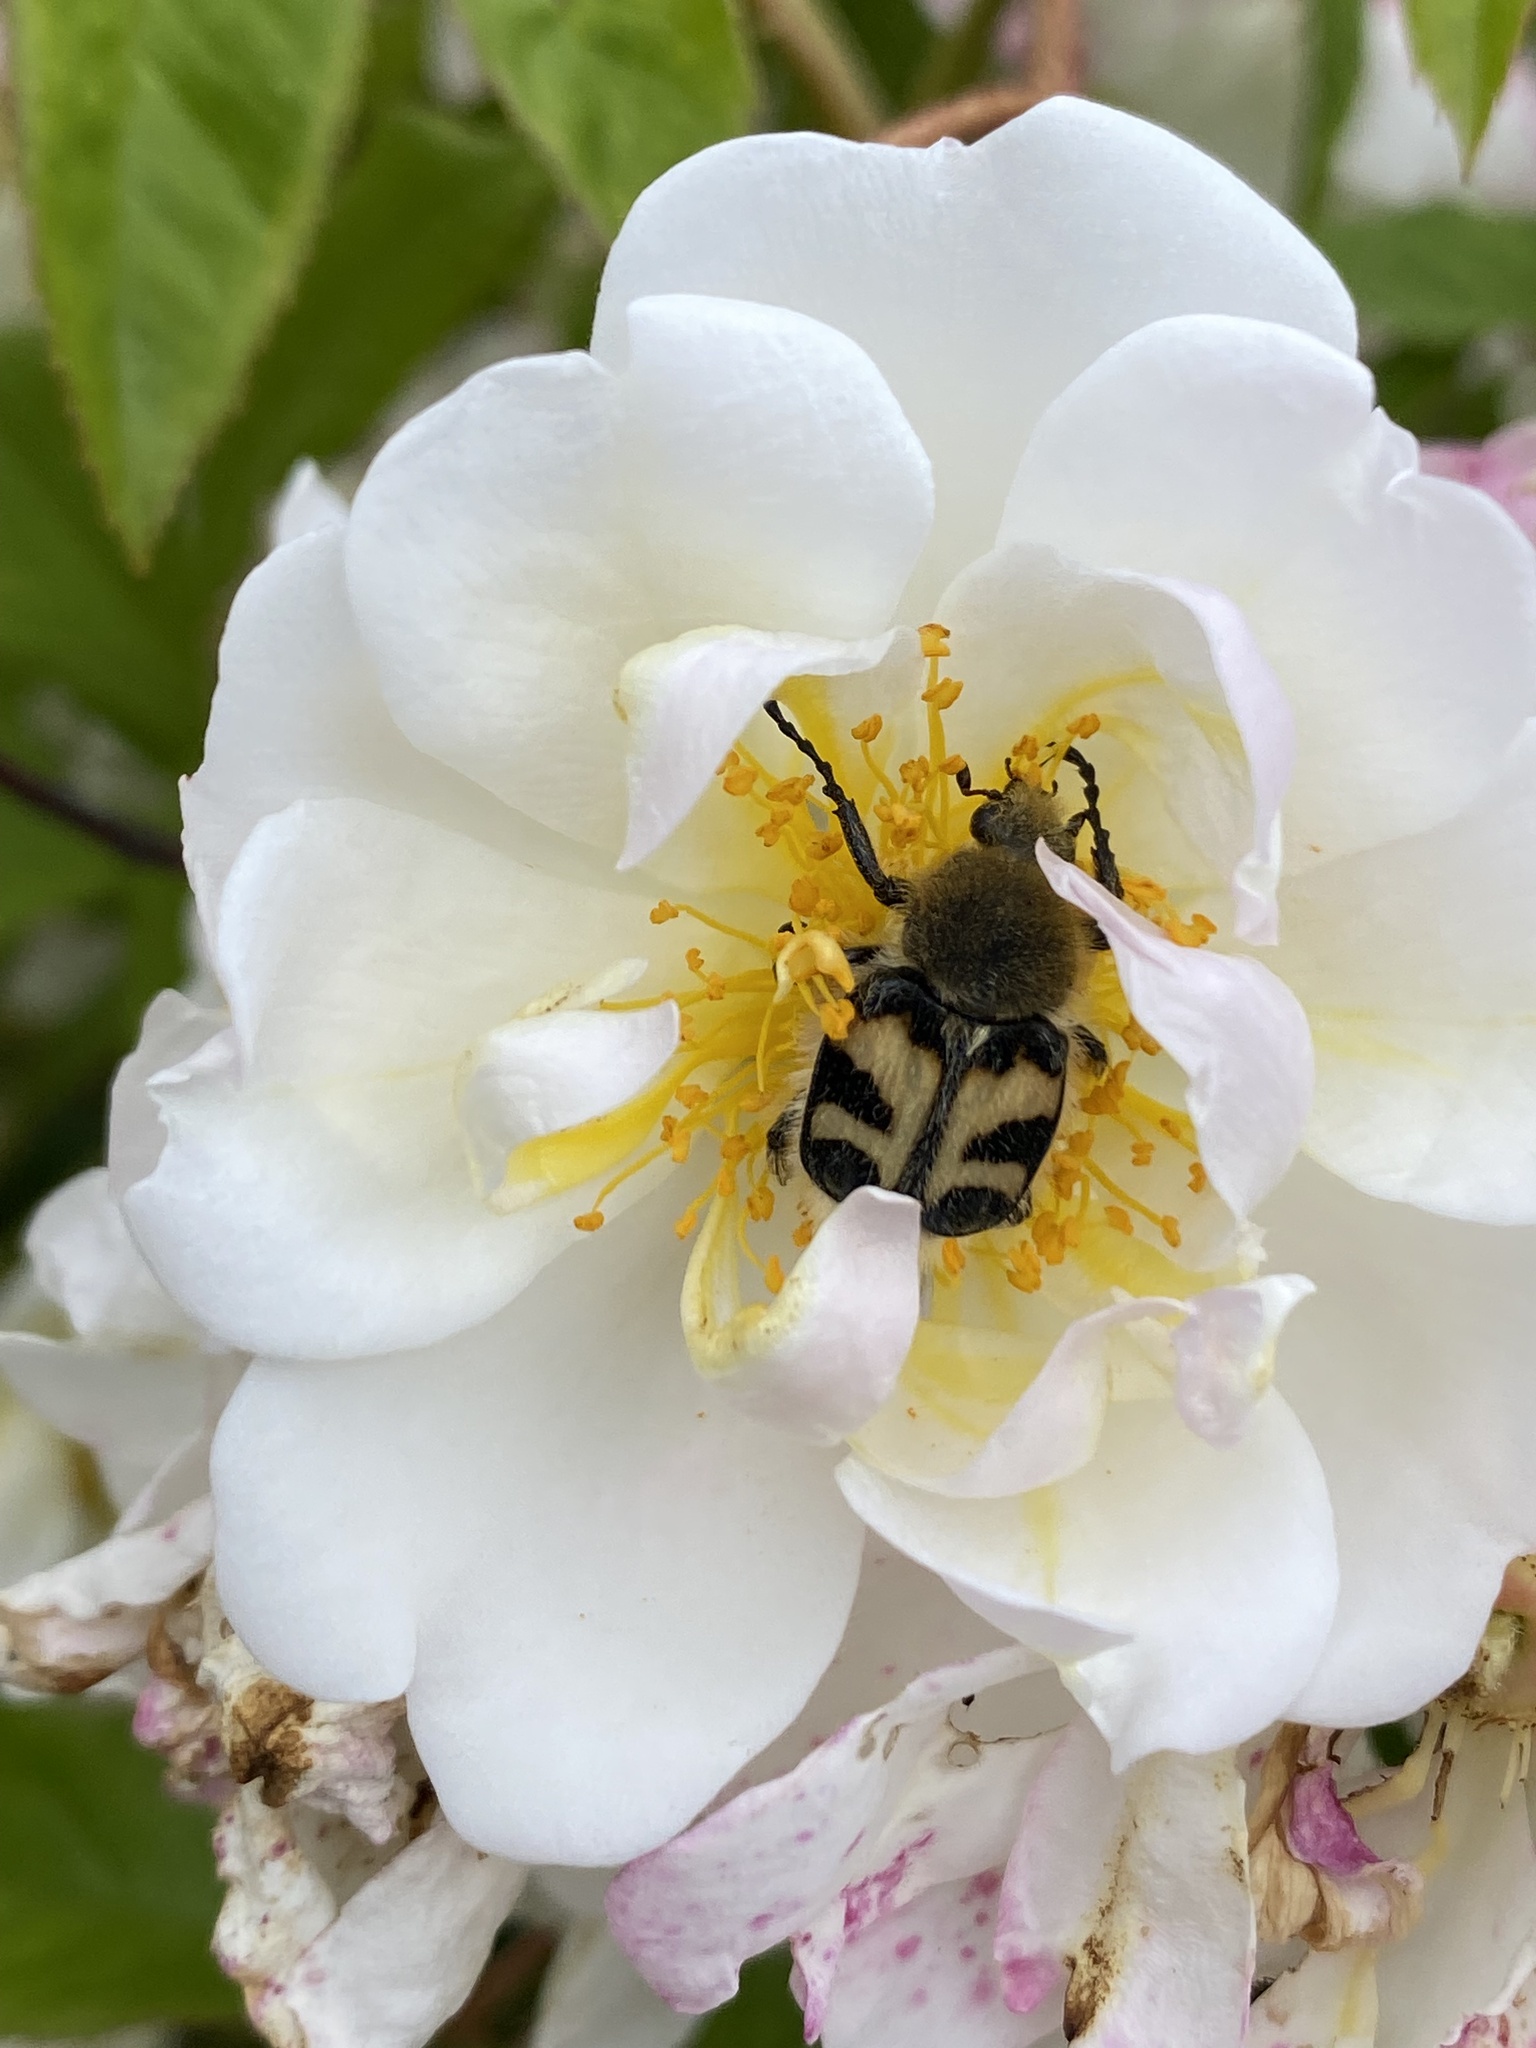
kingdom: Animalia
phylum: Arthropoda
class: Insecta
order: Coleoptera
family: Scarabaeidae
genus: Trichius
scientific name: Trichius fasciatus
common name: Bee beetle
